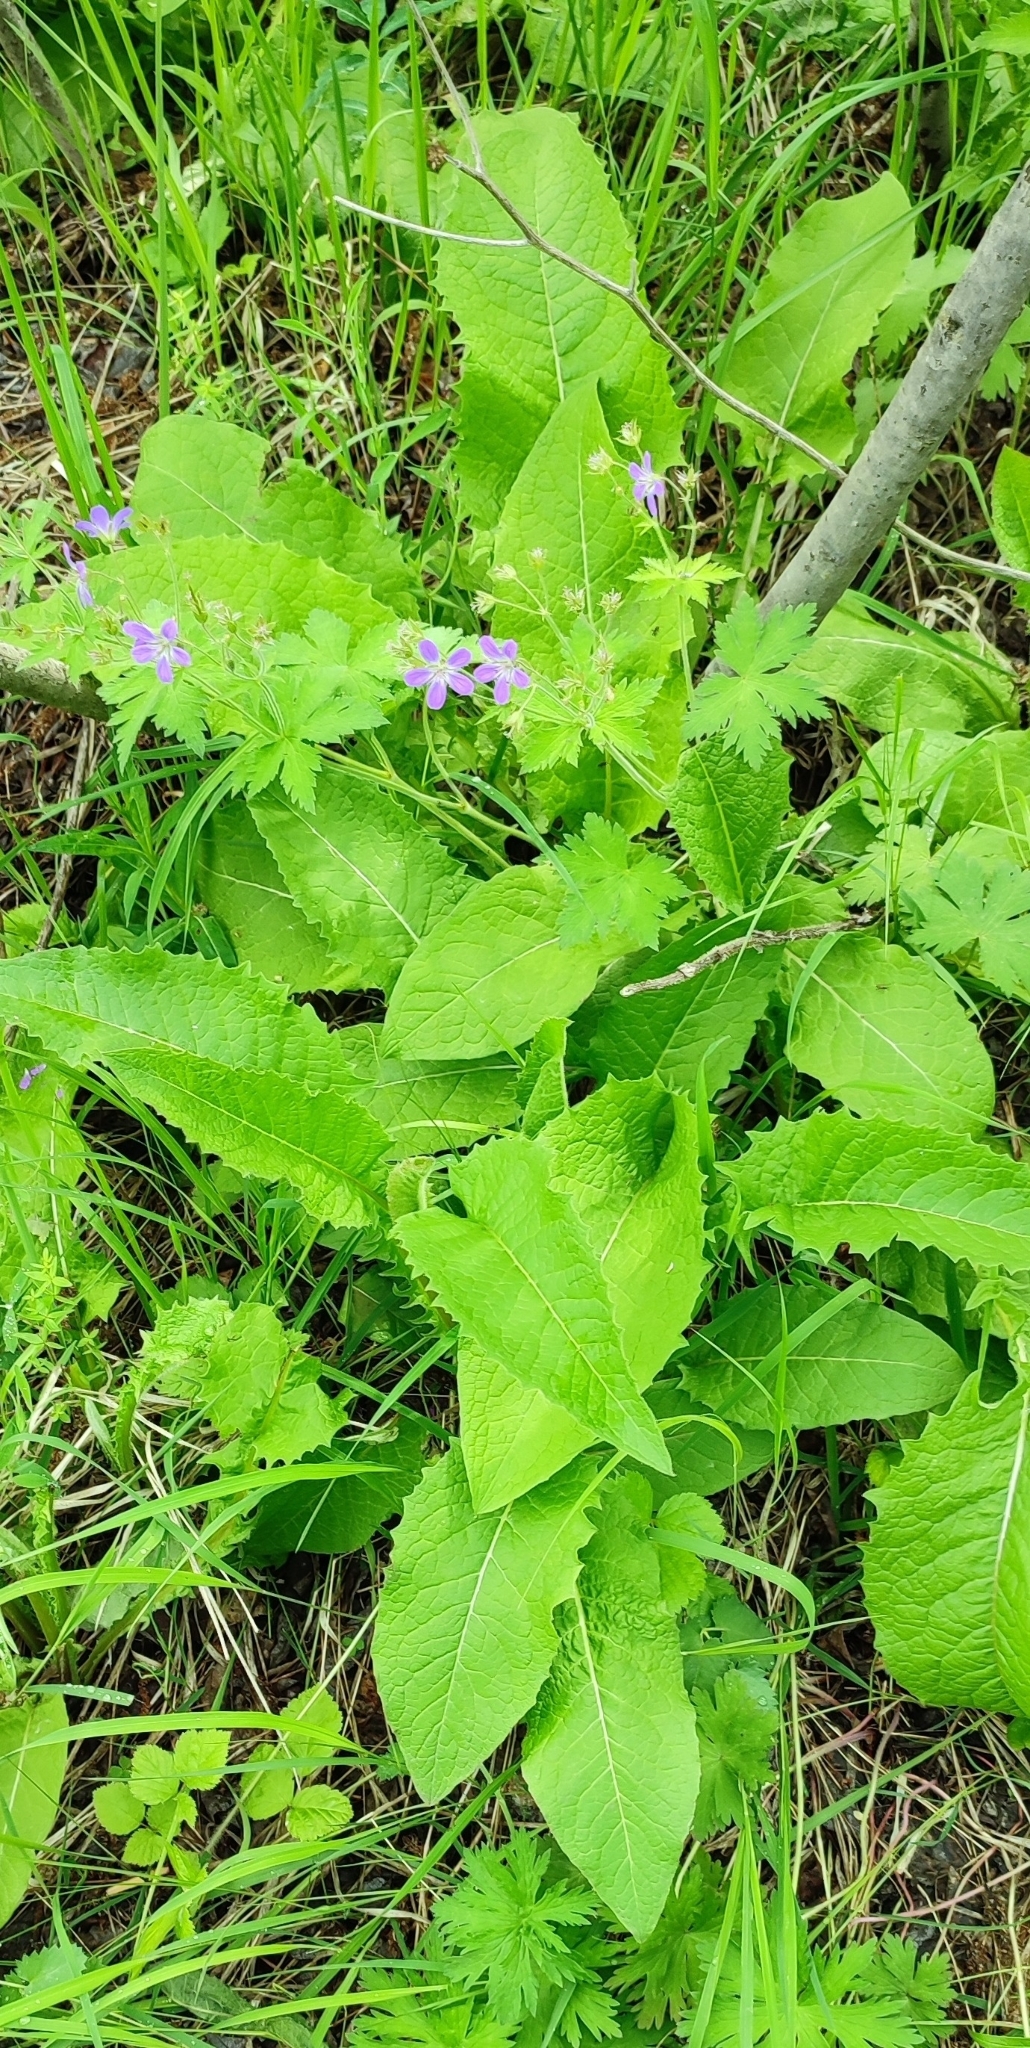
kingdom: Plantae
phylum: Tracheophyta
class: Magnoliopsida
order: Asterales
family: Asteraceae
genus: Crepis
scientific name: Crepis sibirica
